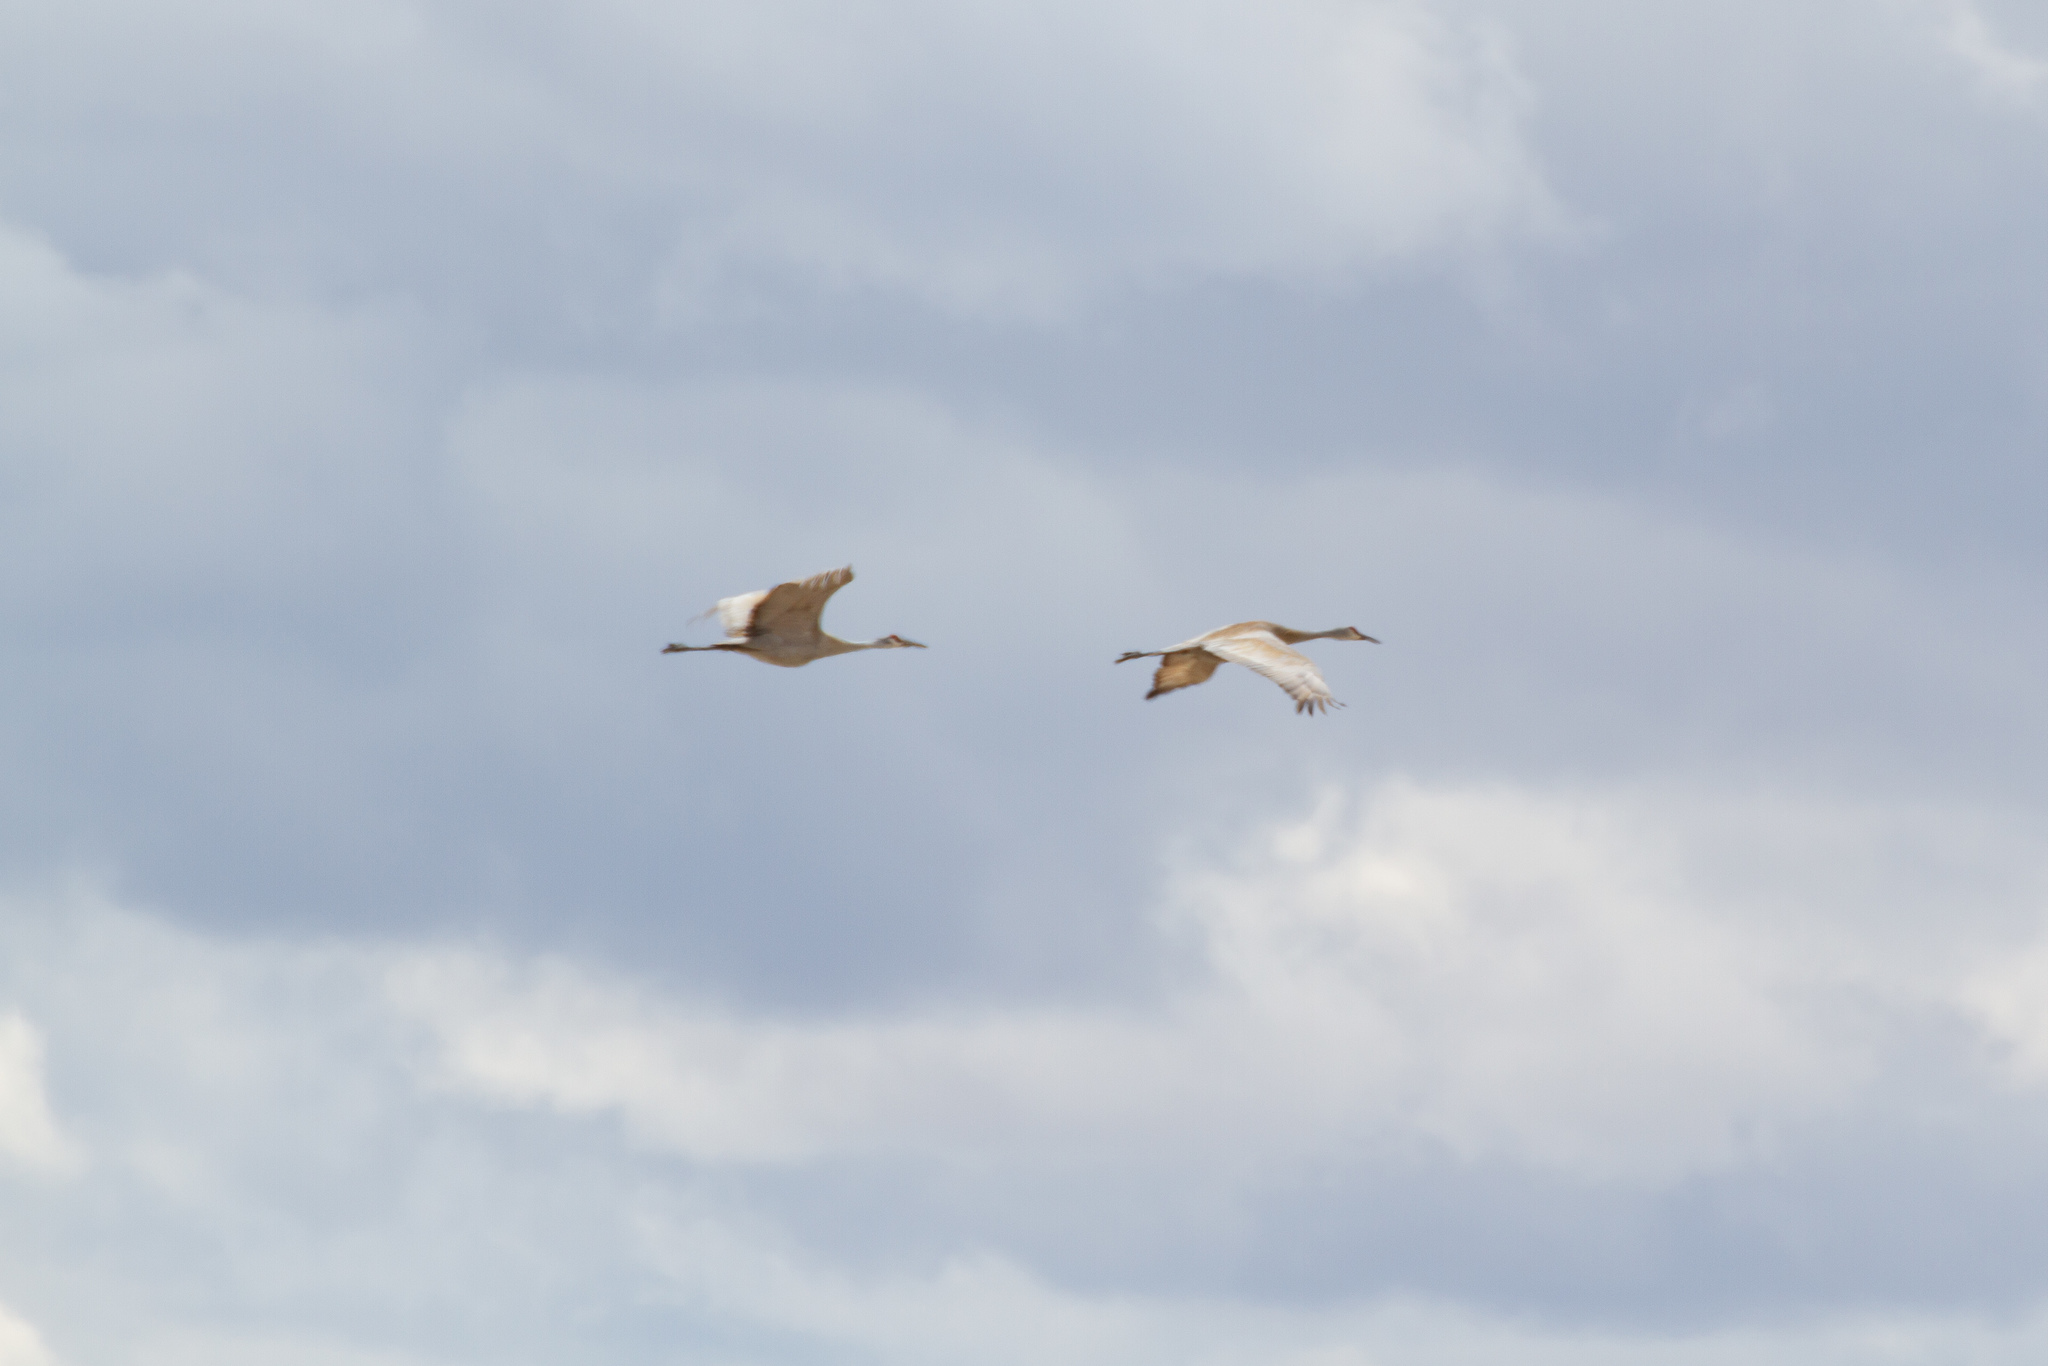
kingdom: Animalia
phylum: Chordata
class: Aves
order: Gruiformes
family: Gruidae
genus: Grus
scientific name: Grus canadensis
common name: Sandhill crane
